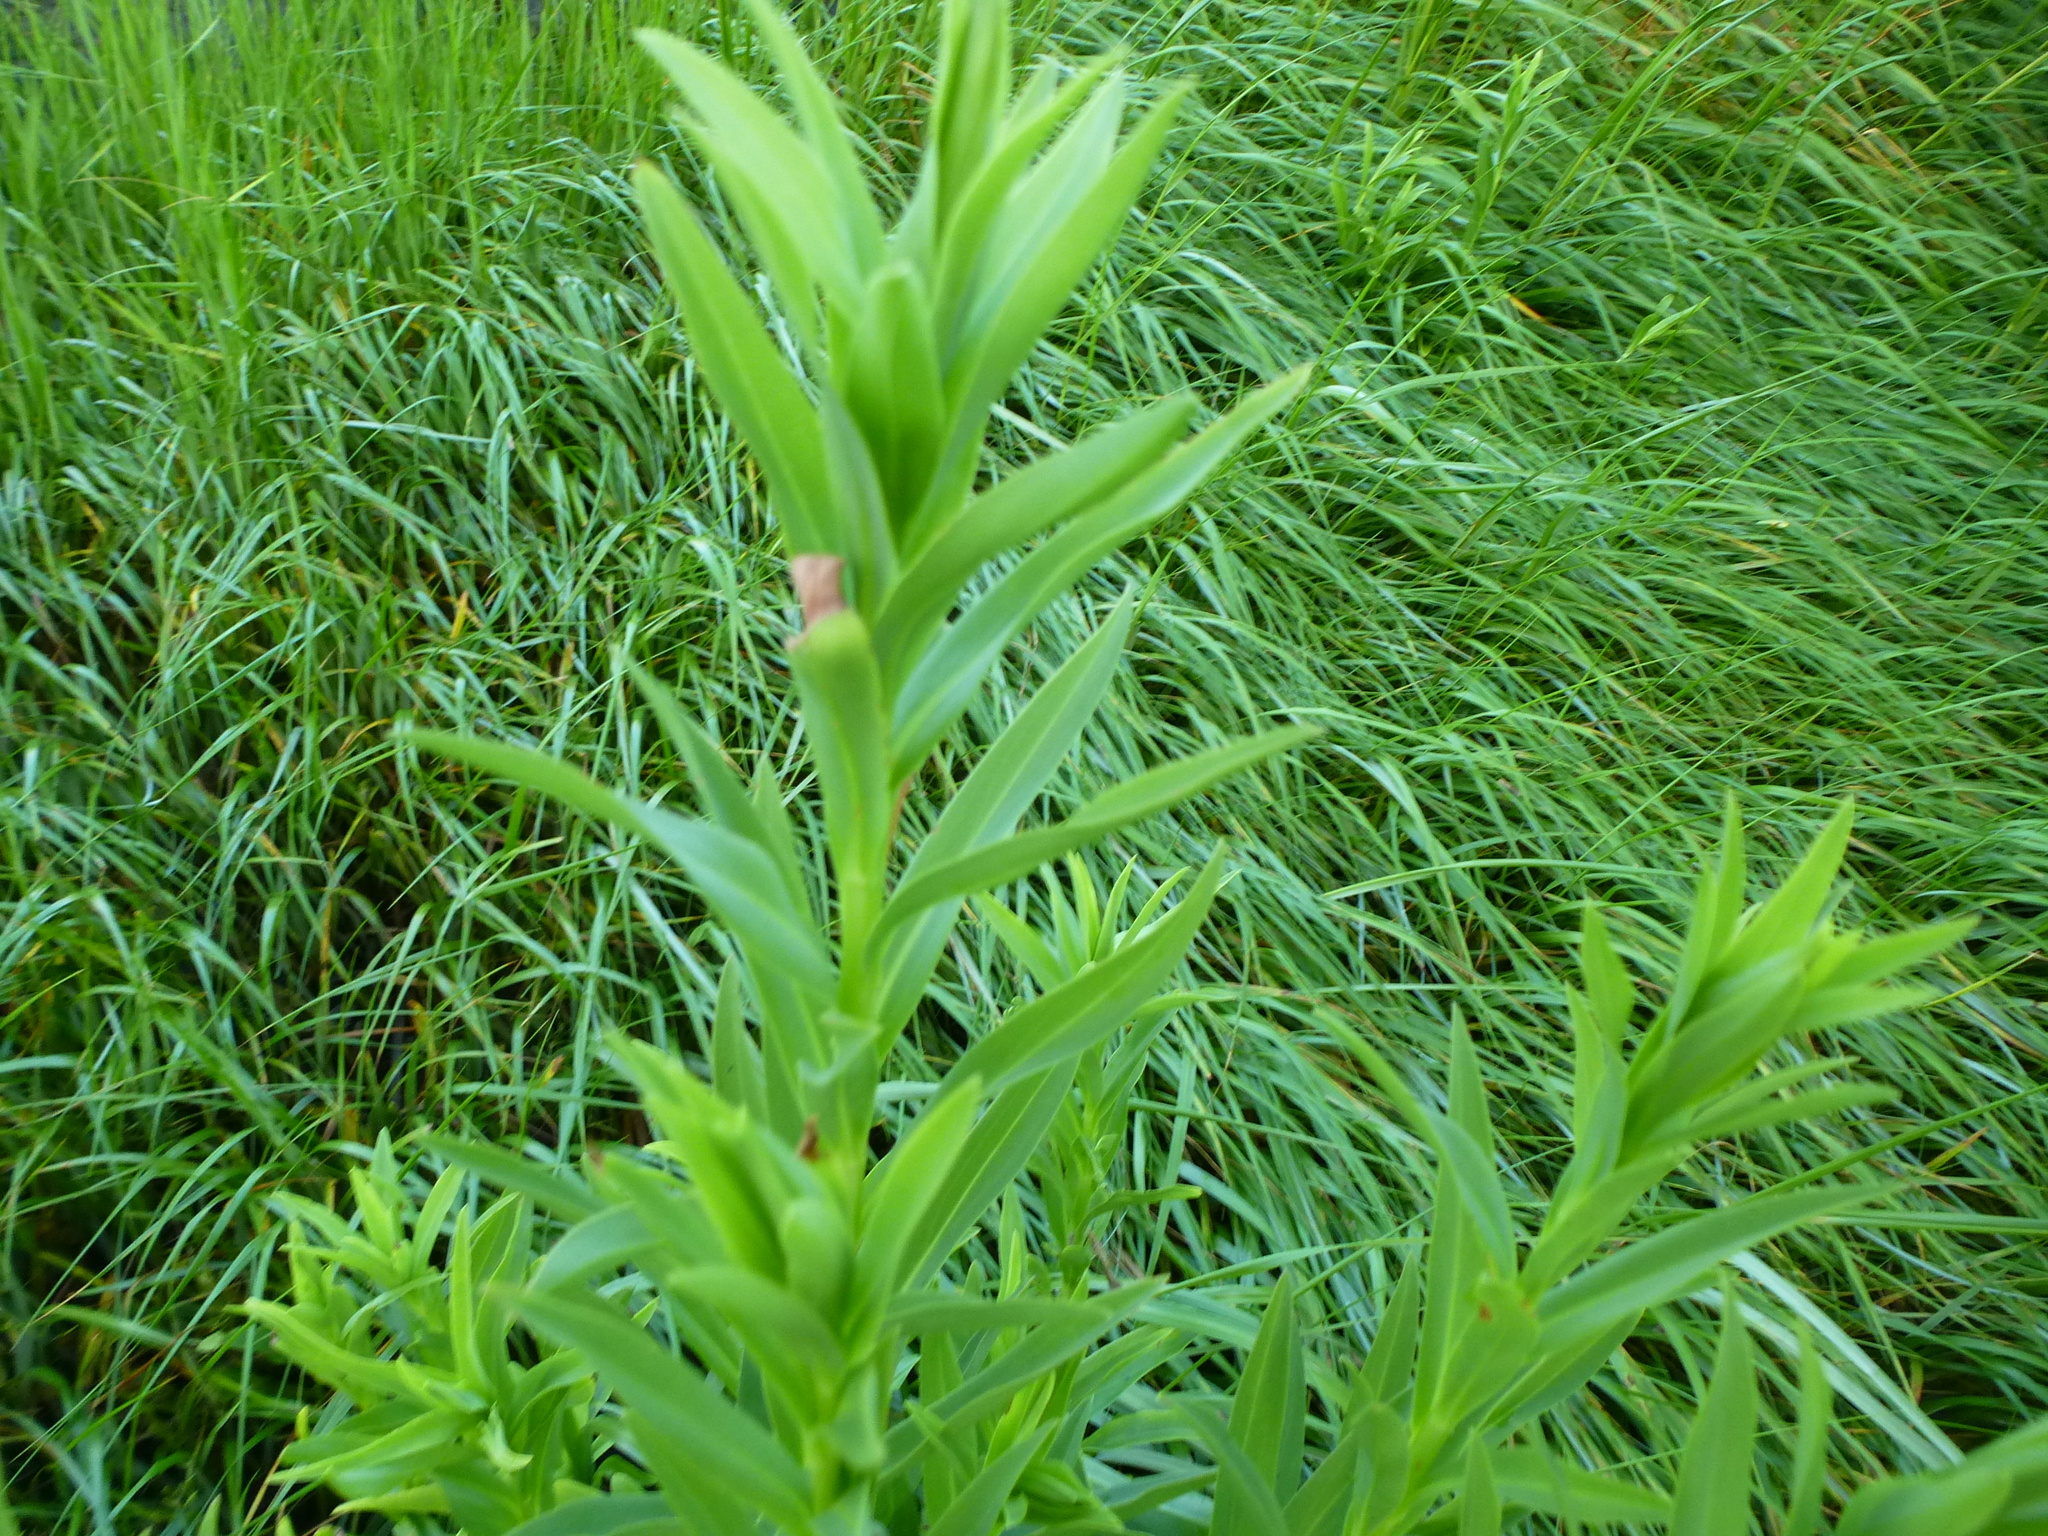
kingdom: Plantae
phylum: Tracheophyta
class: Magnoliopsida
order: Asterales
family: Asteraceae
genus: Solidago
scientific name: Solidago sempervirens
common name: Salt-marsh goldenrod
